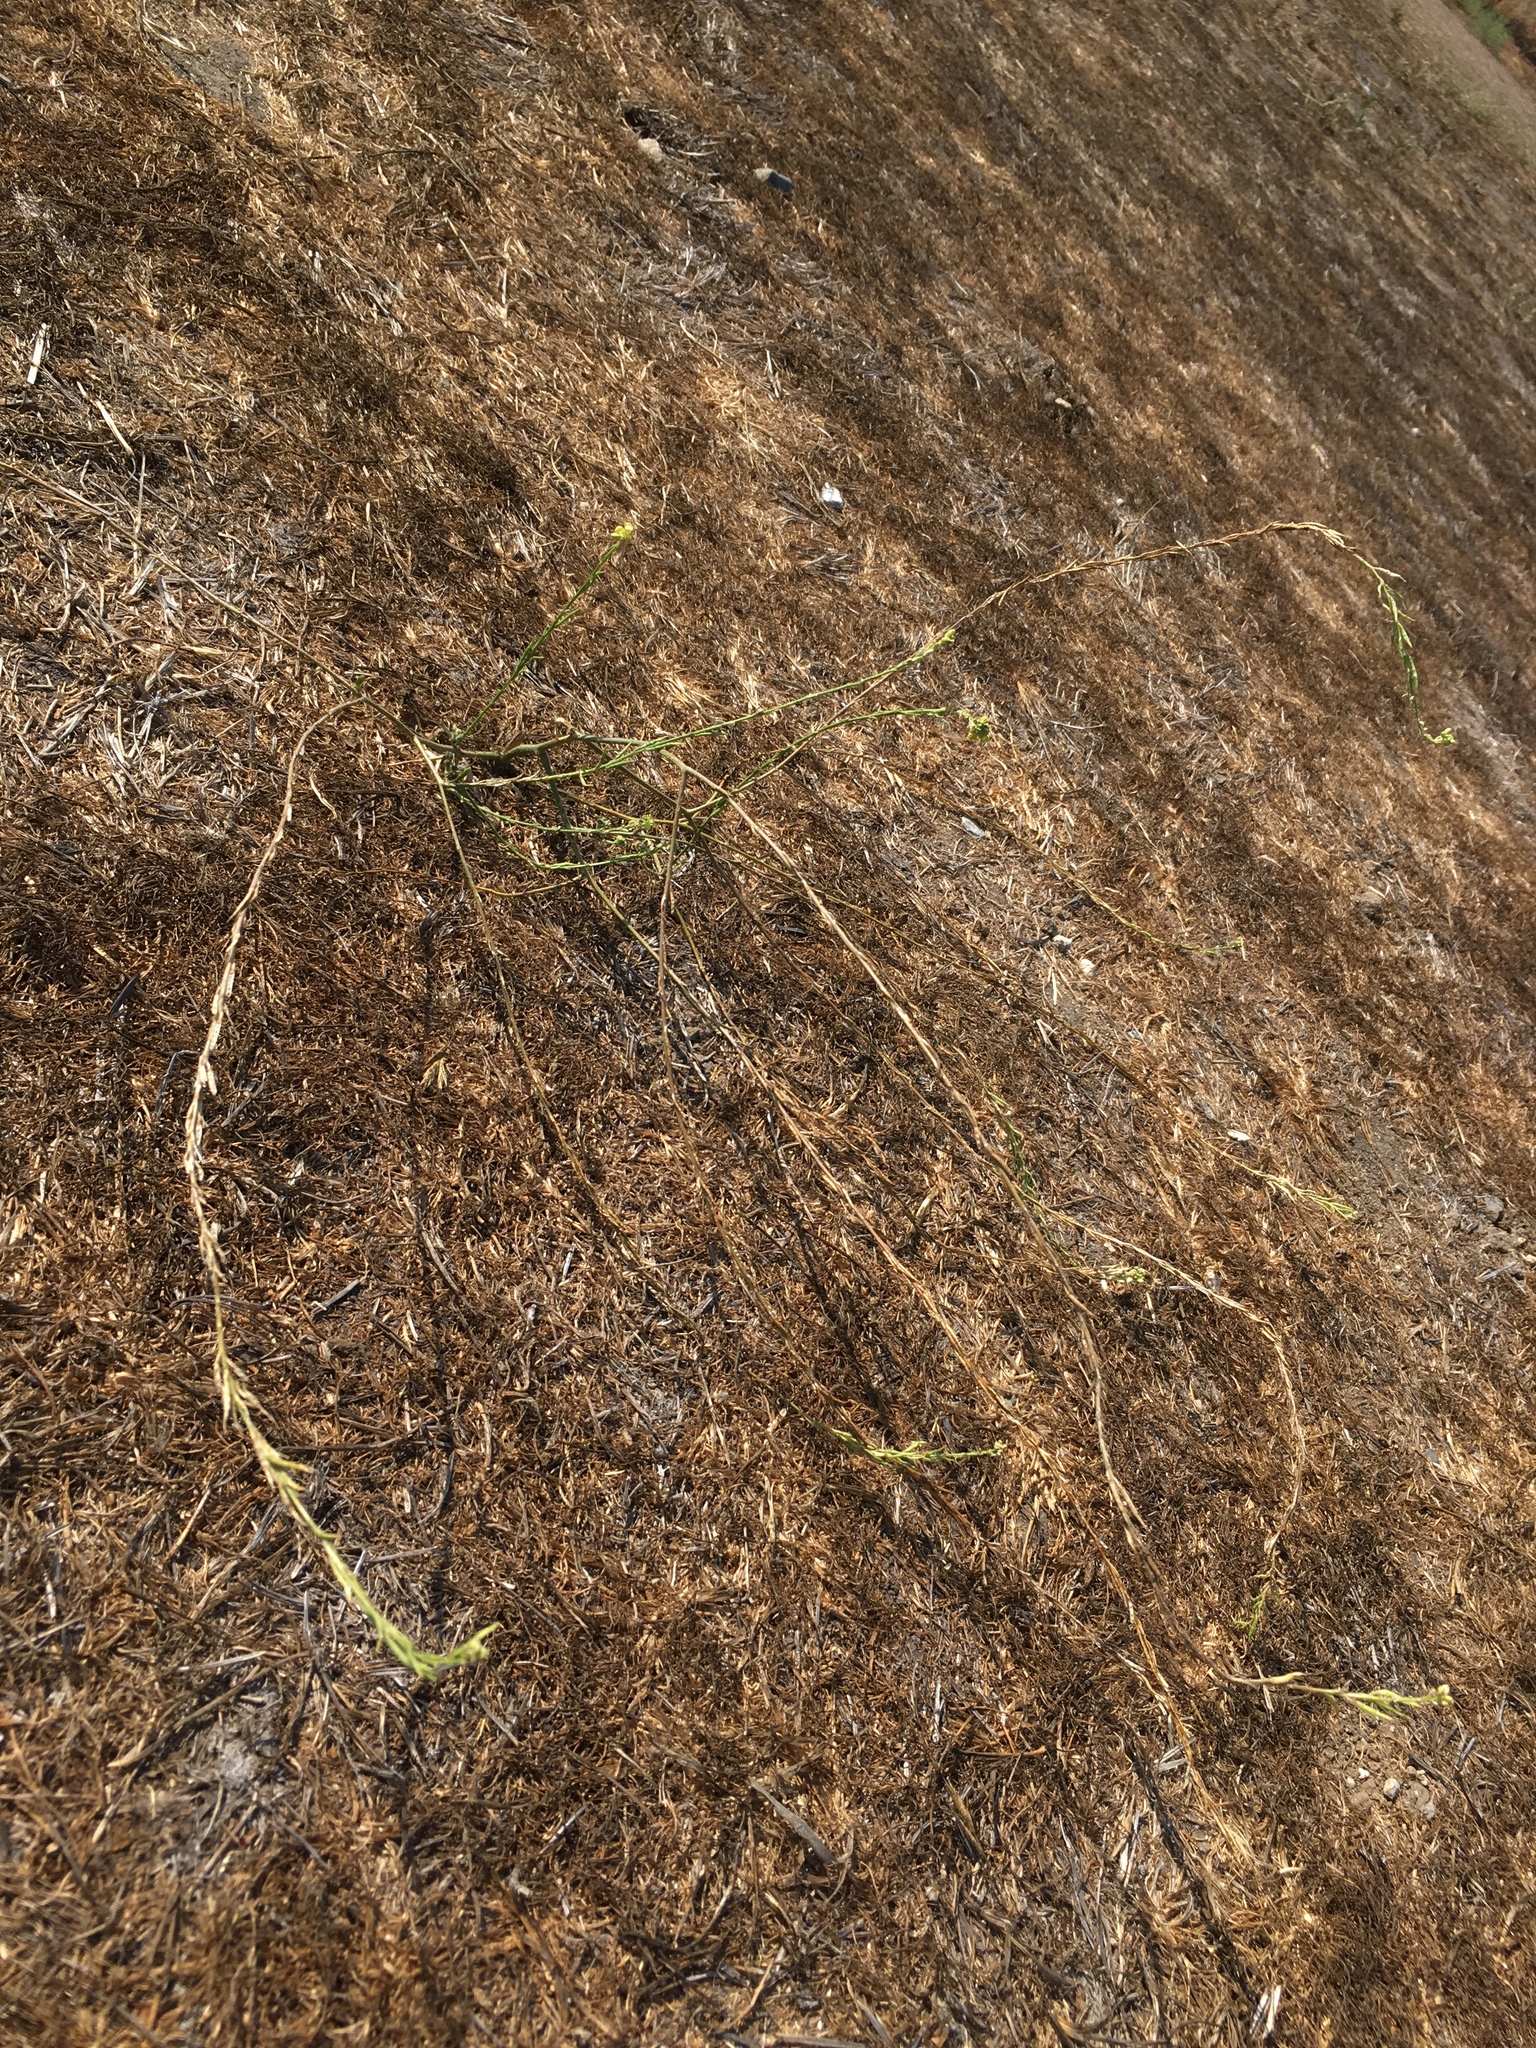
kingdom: Plantae
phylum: Tracheophyta
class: Magnoliopsida
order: Brassicales
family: Brassicaceae
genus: Hirschfeldia
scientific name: Hirschfeldia incana
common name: Hoary mustard
